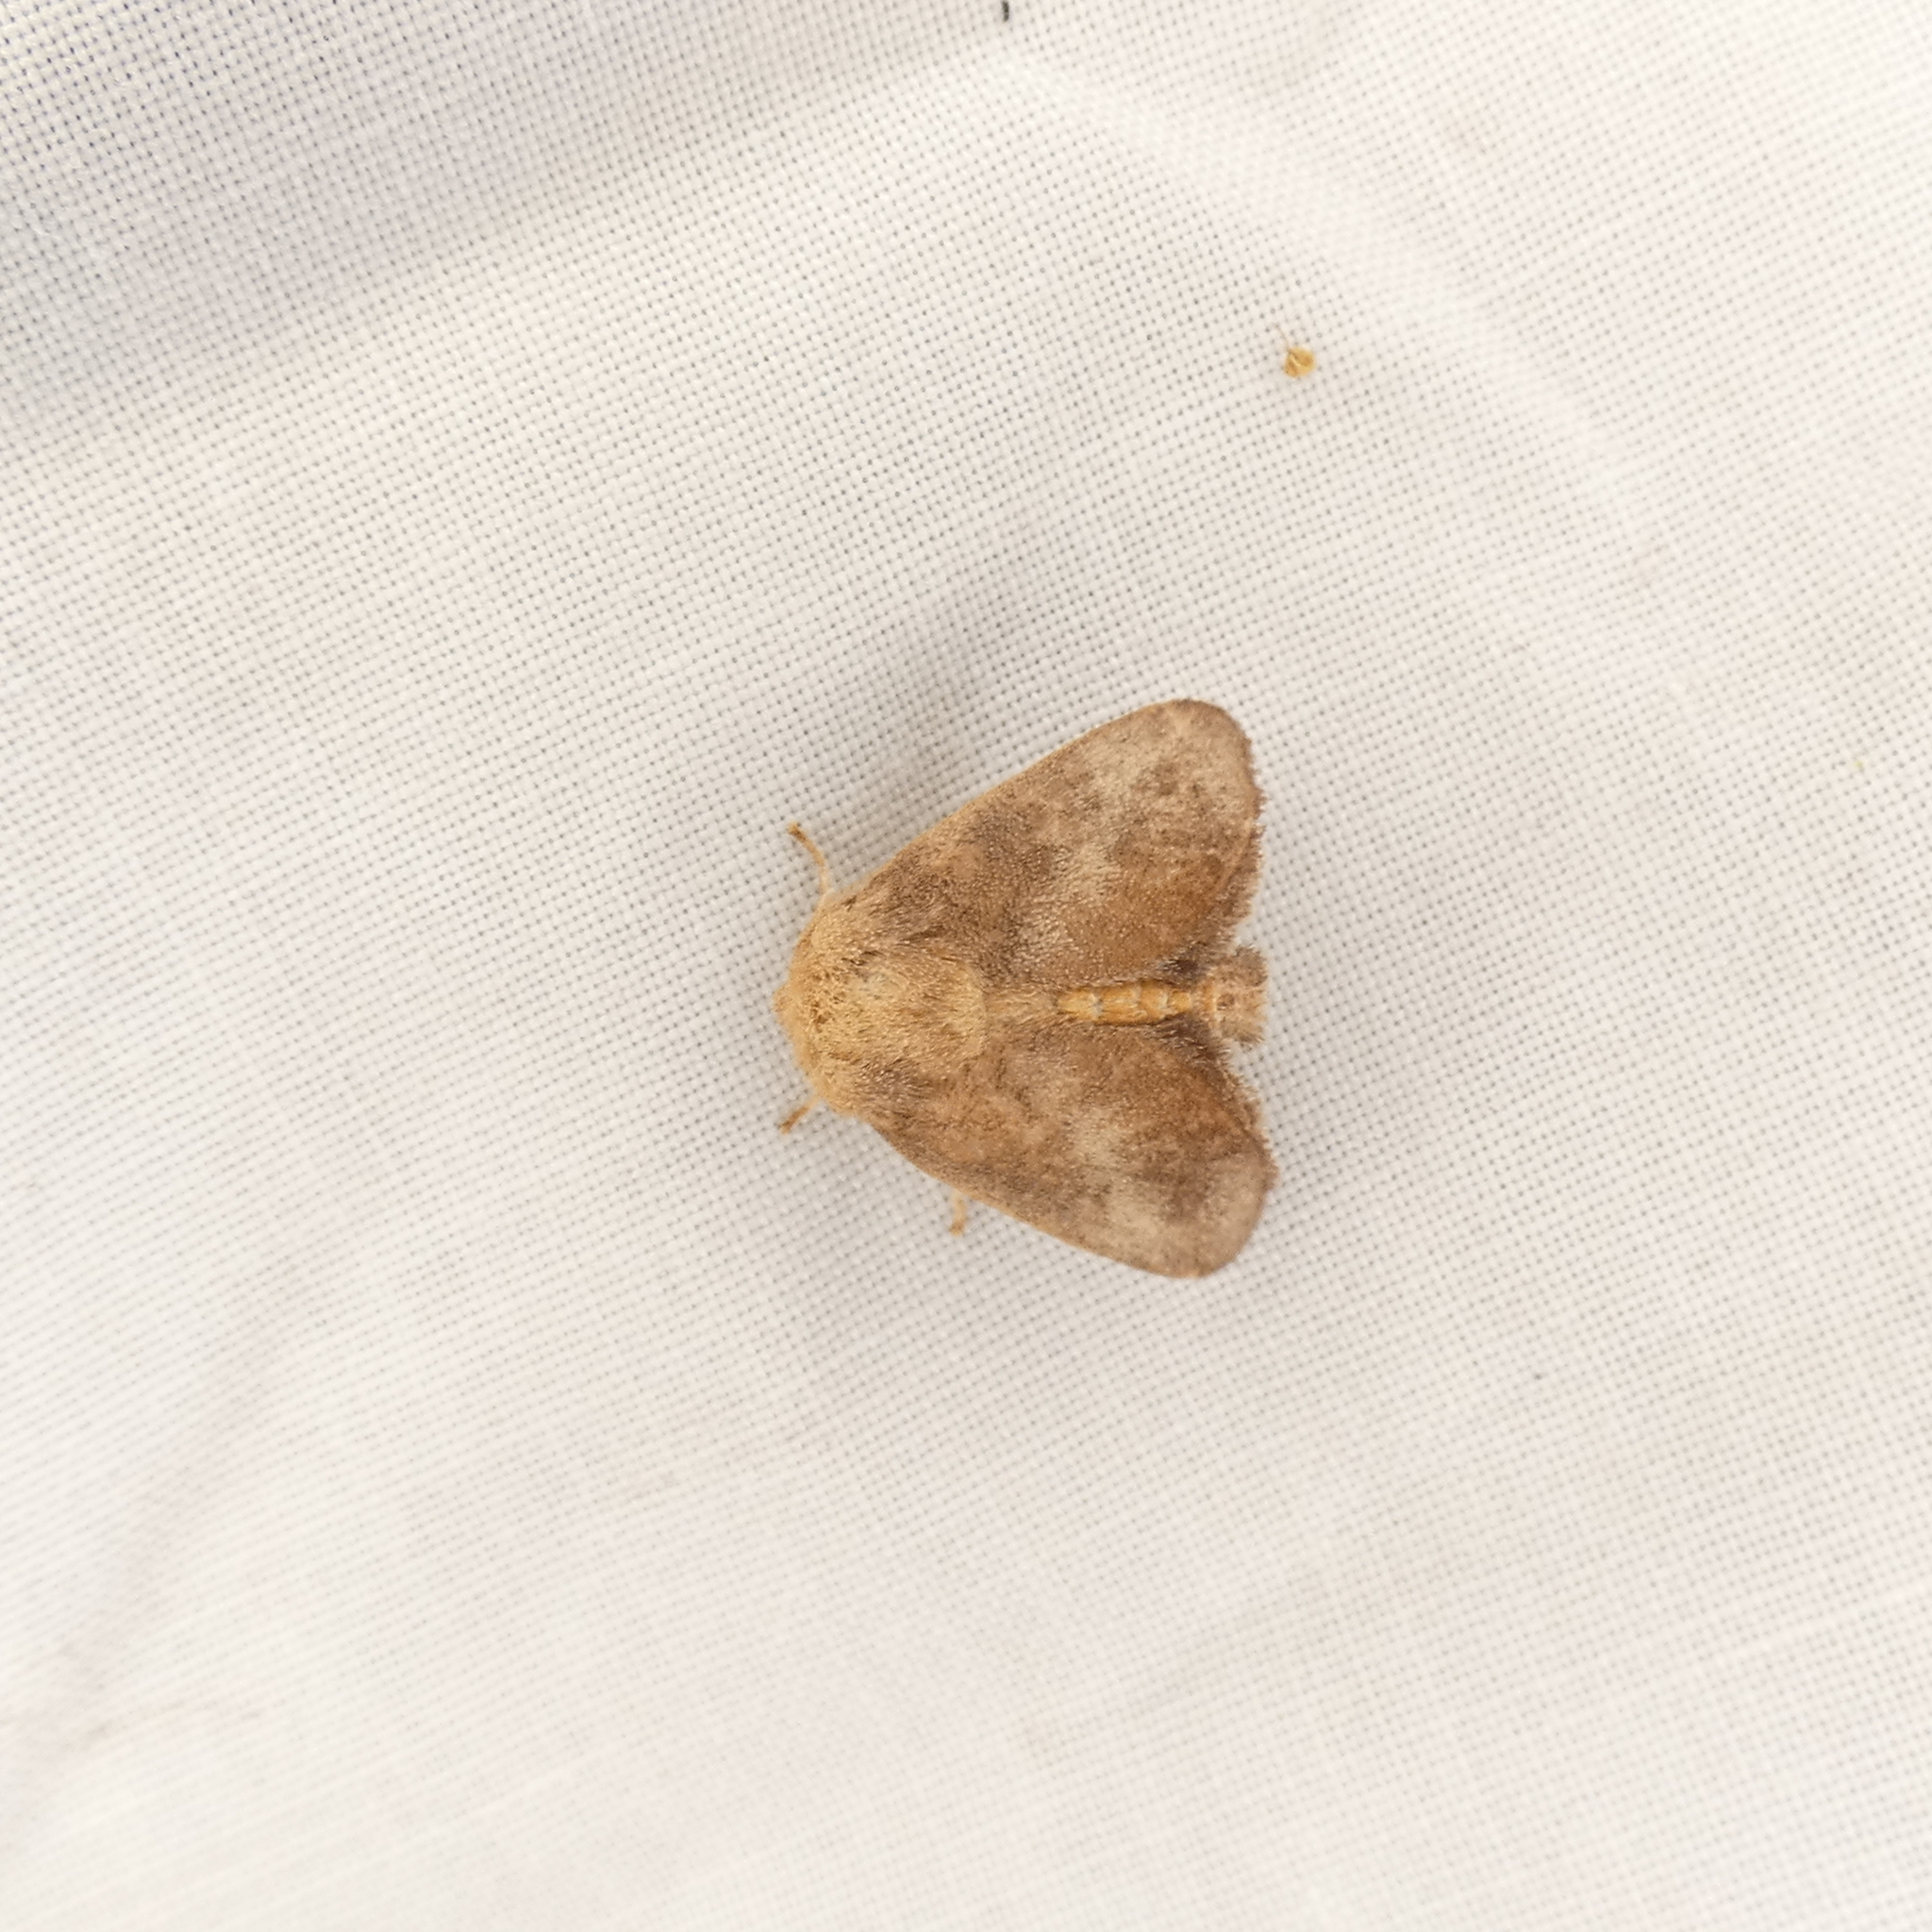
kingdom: Animalia
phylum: Arthropoda
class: Insecta
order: Lepidoptera
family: Limacodidae
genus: Isa
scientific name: Isa textula
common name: Crowned slug moth
